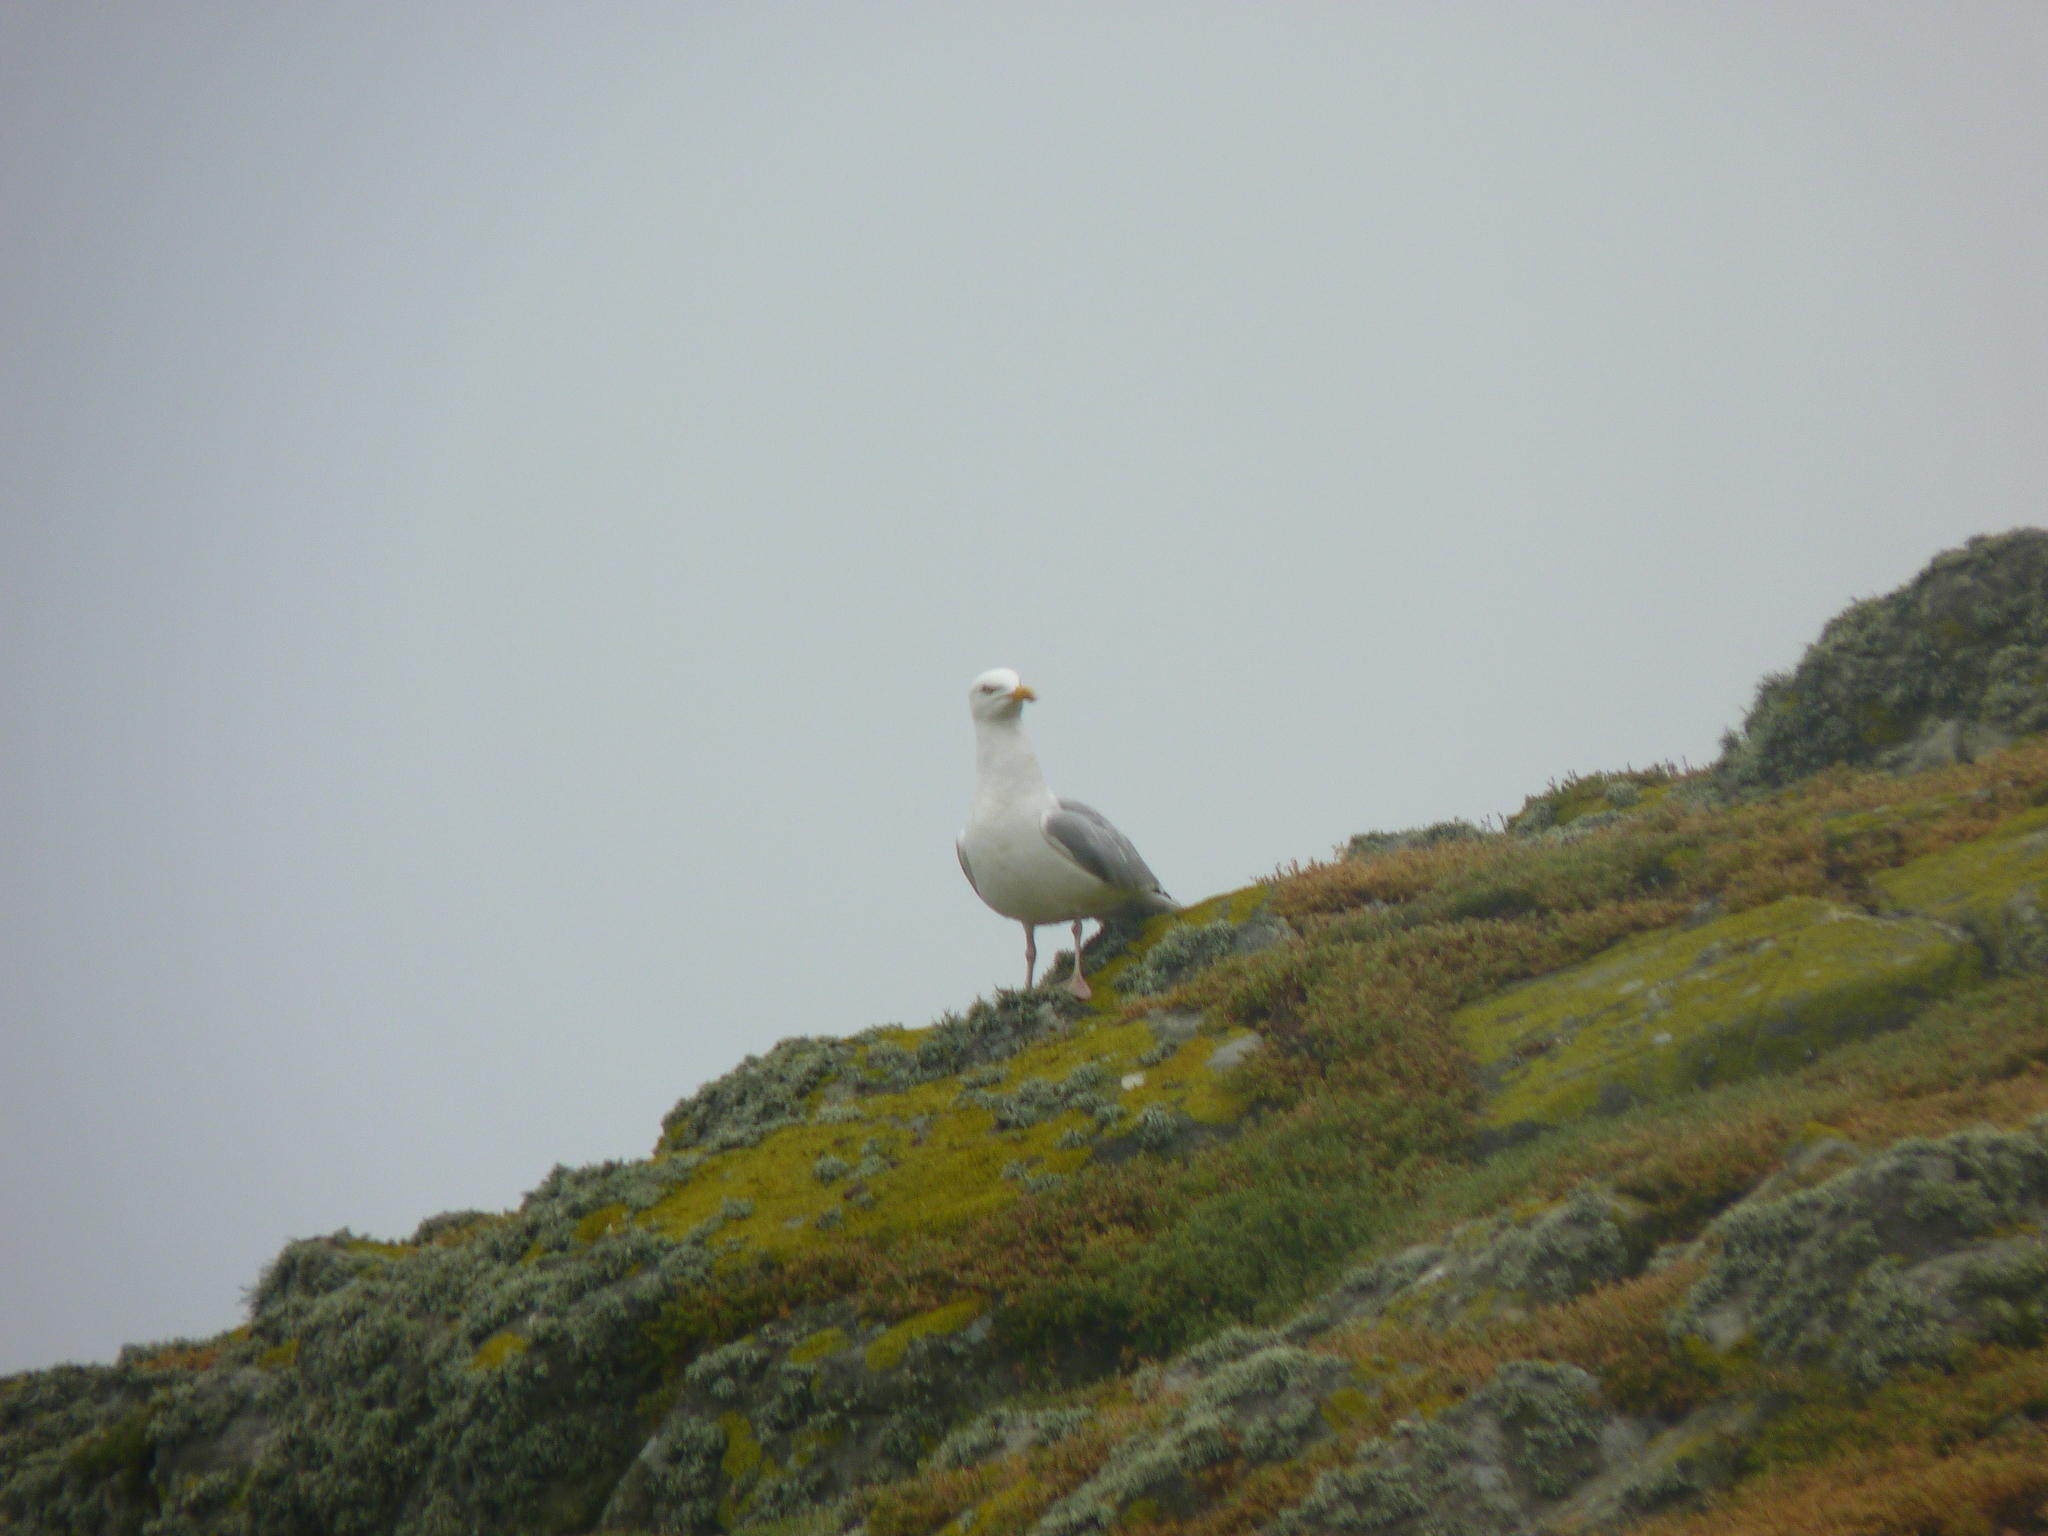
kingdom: Animalia
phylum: Chordata
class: Aves
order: Charadriiformes
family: Laridae
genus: Larus
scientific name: Larus argentatus
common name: Herring gull
